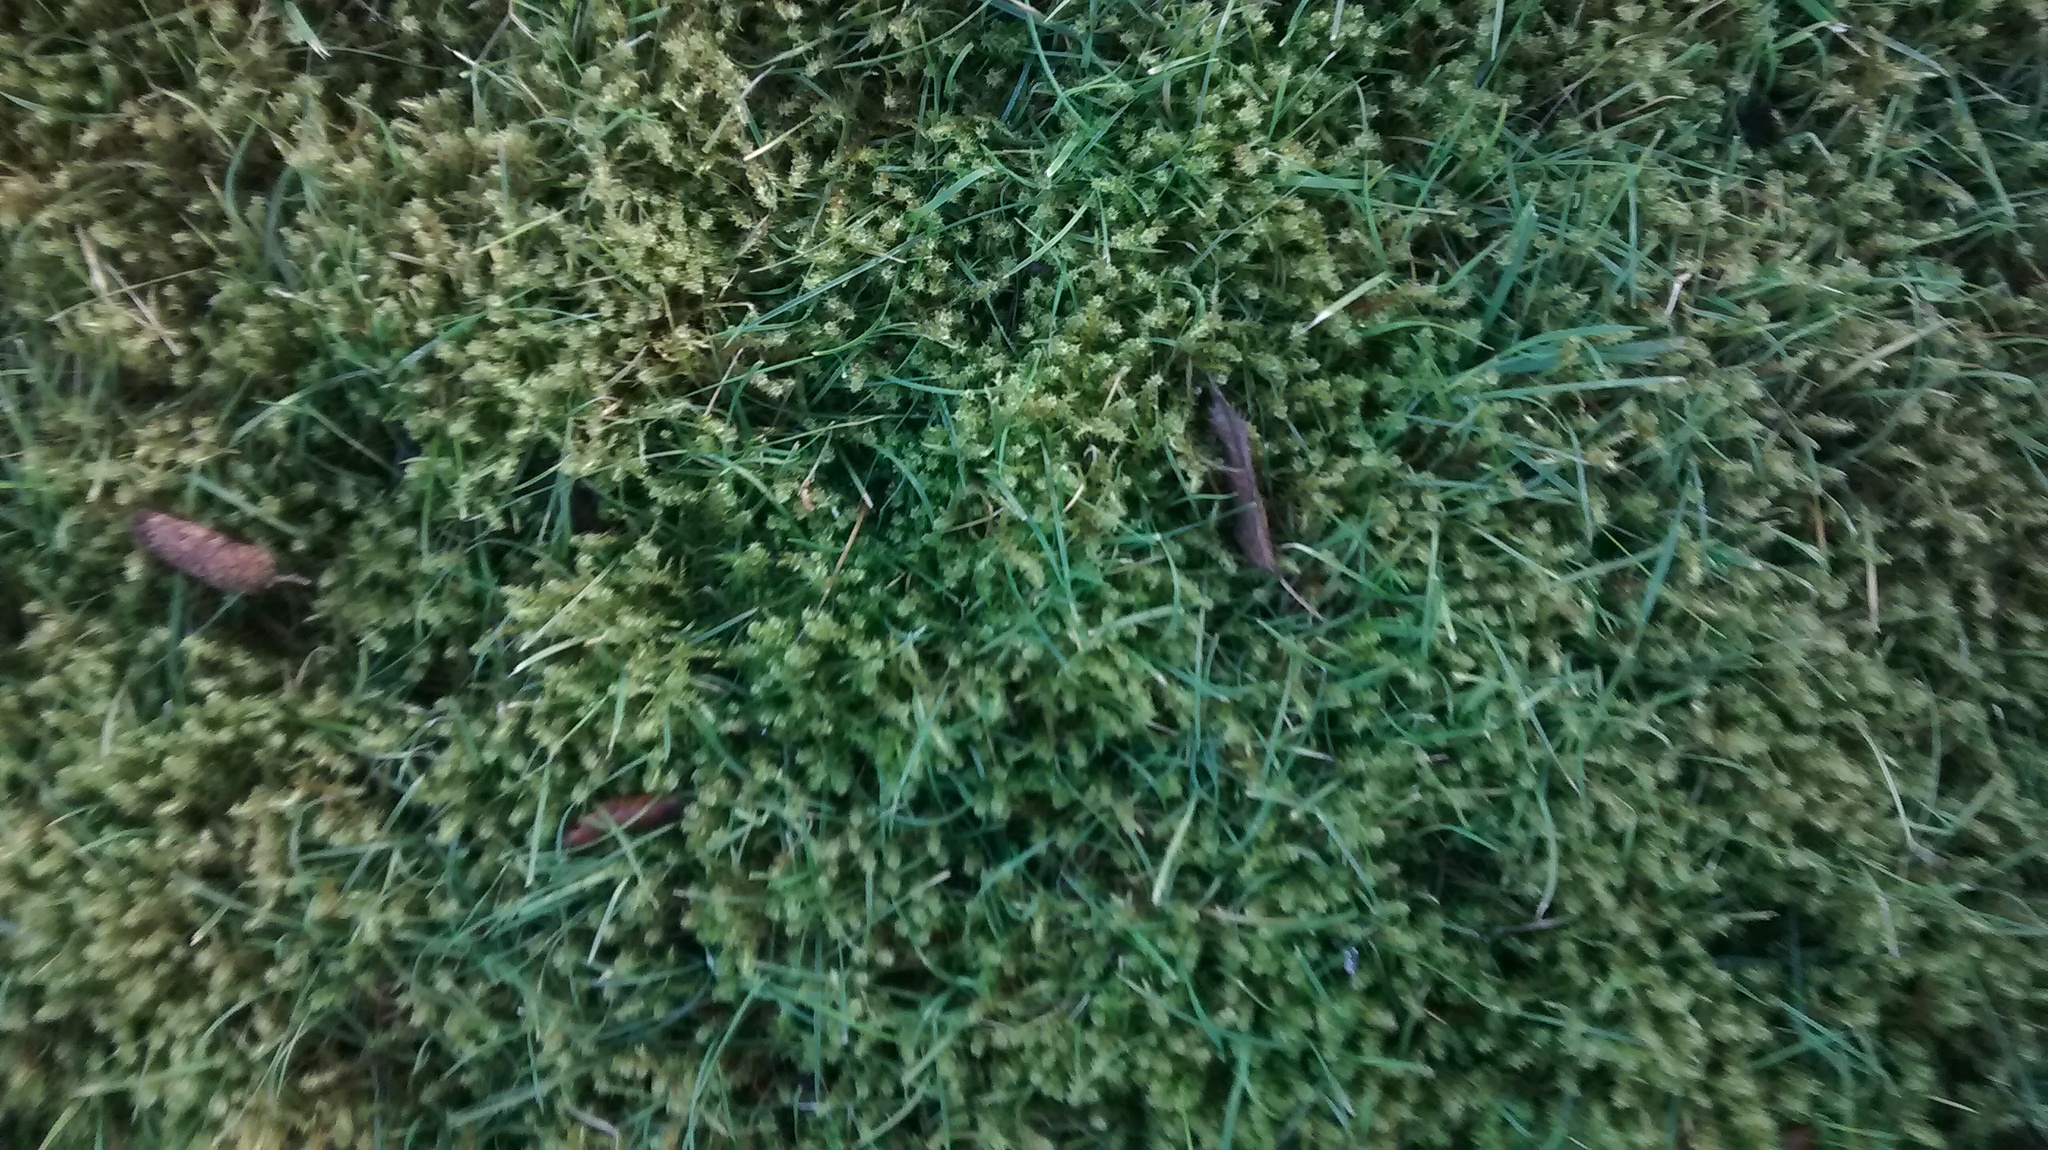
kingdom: Plantae
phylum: Bryophyta
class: Bryopsida
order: Hypnales
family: Hylocomiaceae
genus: Rhytidiadelphus
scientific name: Rhytidiadelphus squarrosus
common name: Springy turf-moss
